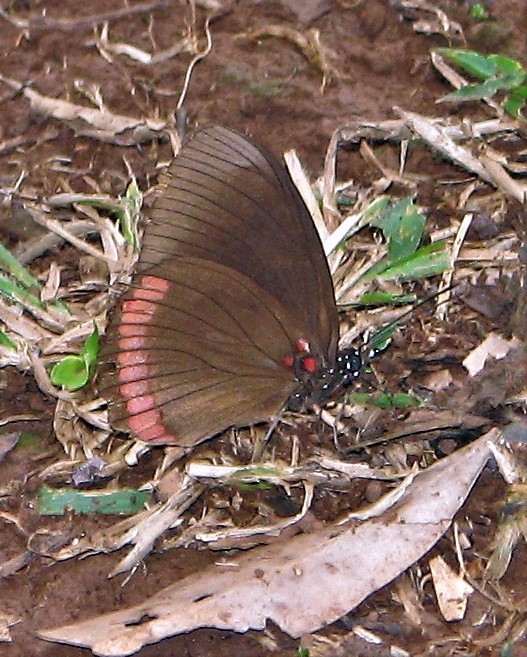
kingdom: Animalia
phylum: Arthropoda
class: Insecta
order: Lepidoptera
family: Sesiidae
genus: Sesia
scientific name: Sesia Biblis hyperia
